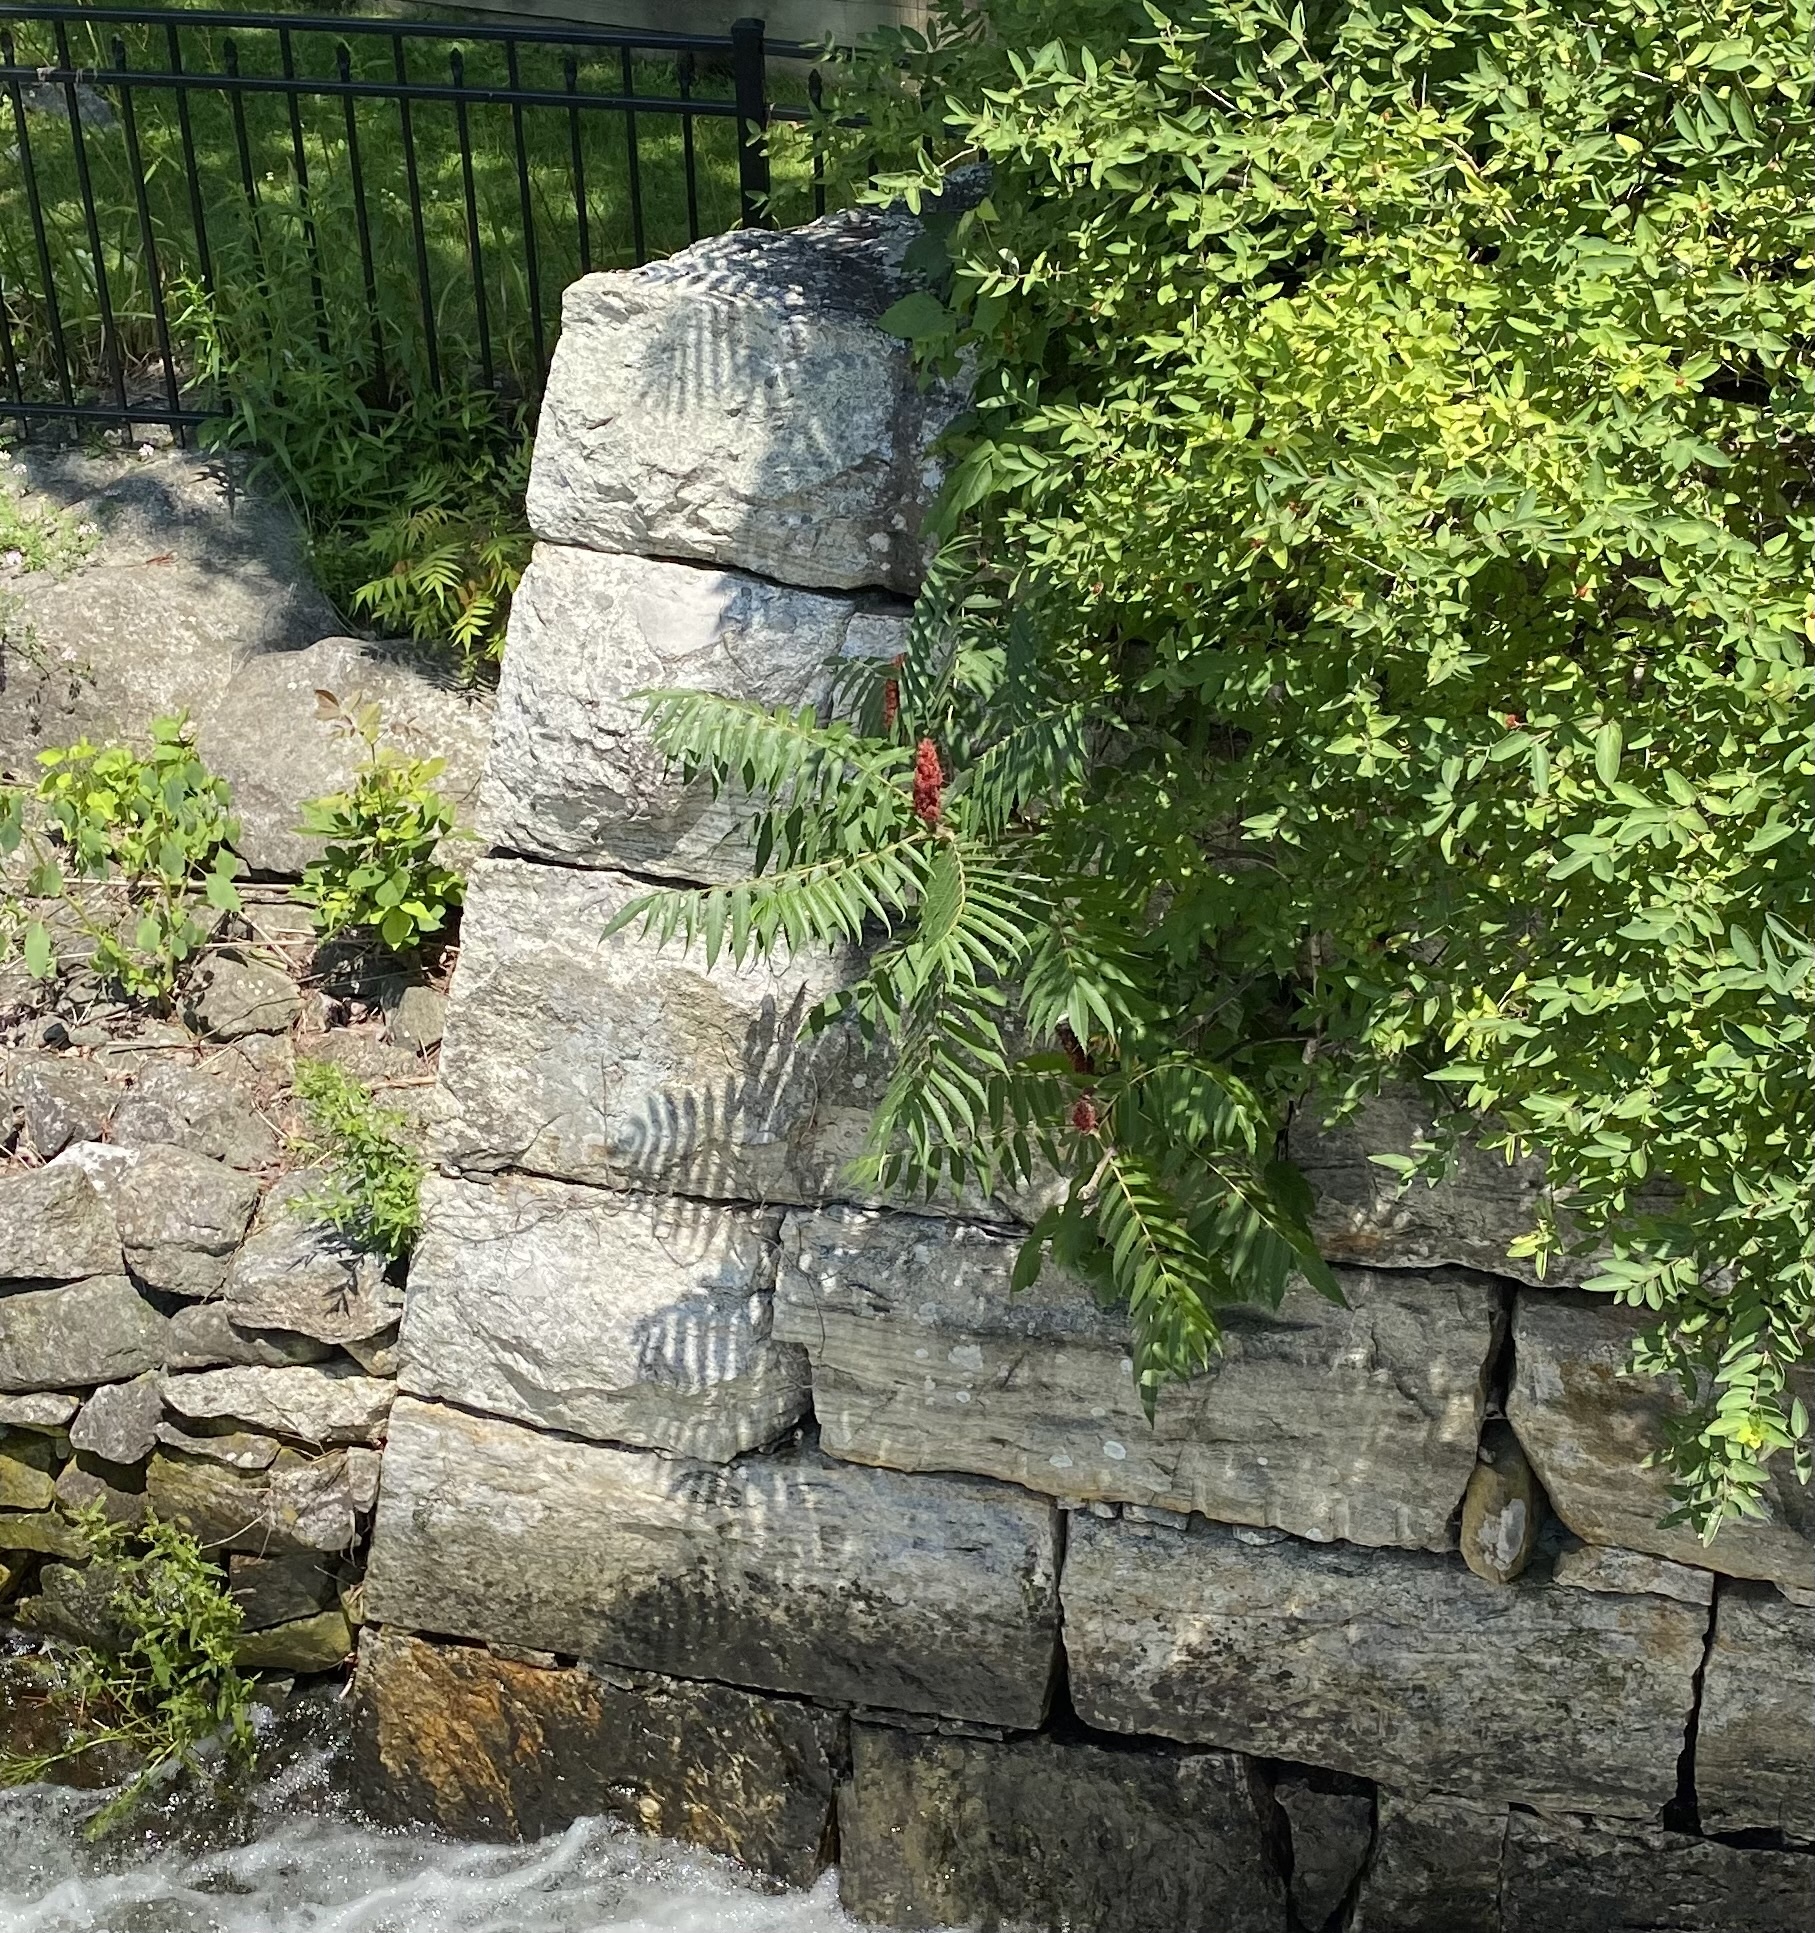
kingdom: Plantae
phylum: Tracheophyta
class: Magnoliopsida
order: Sapindales
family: Anacardiaceae
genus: Rhus
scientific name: Rhus typhina
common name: Staghorn sumac
